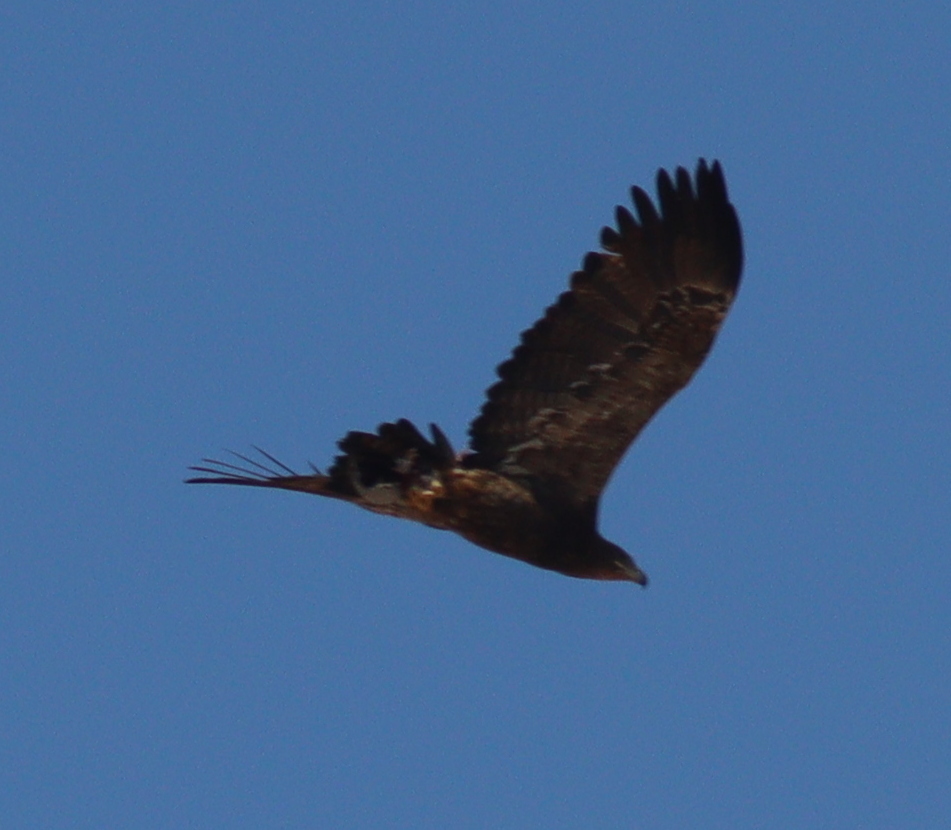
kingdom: Animalia
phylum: Chordata
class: Aves
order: Accipitriformes
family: Accipitridae
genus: Aquila
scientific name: Aquila nipalensis
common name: Steppe eagle
